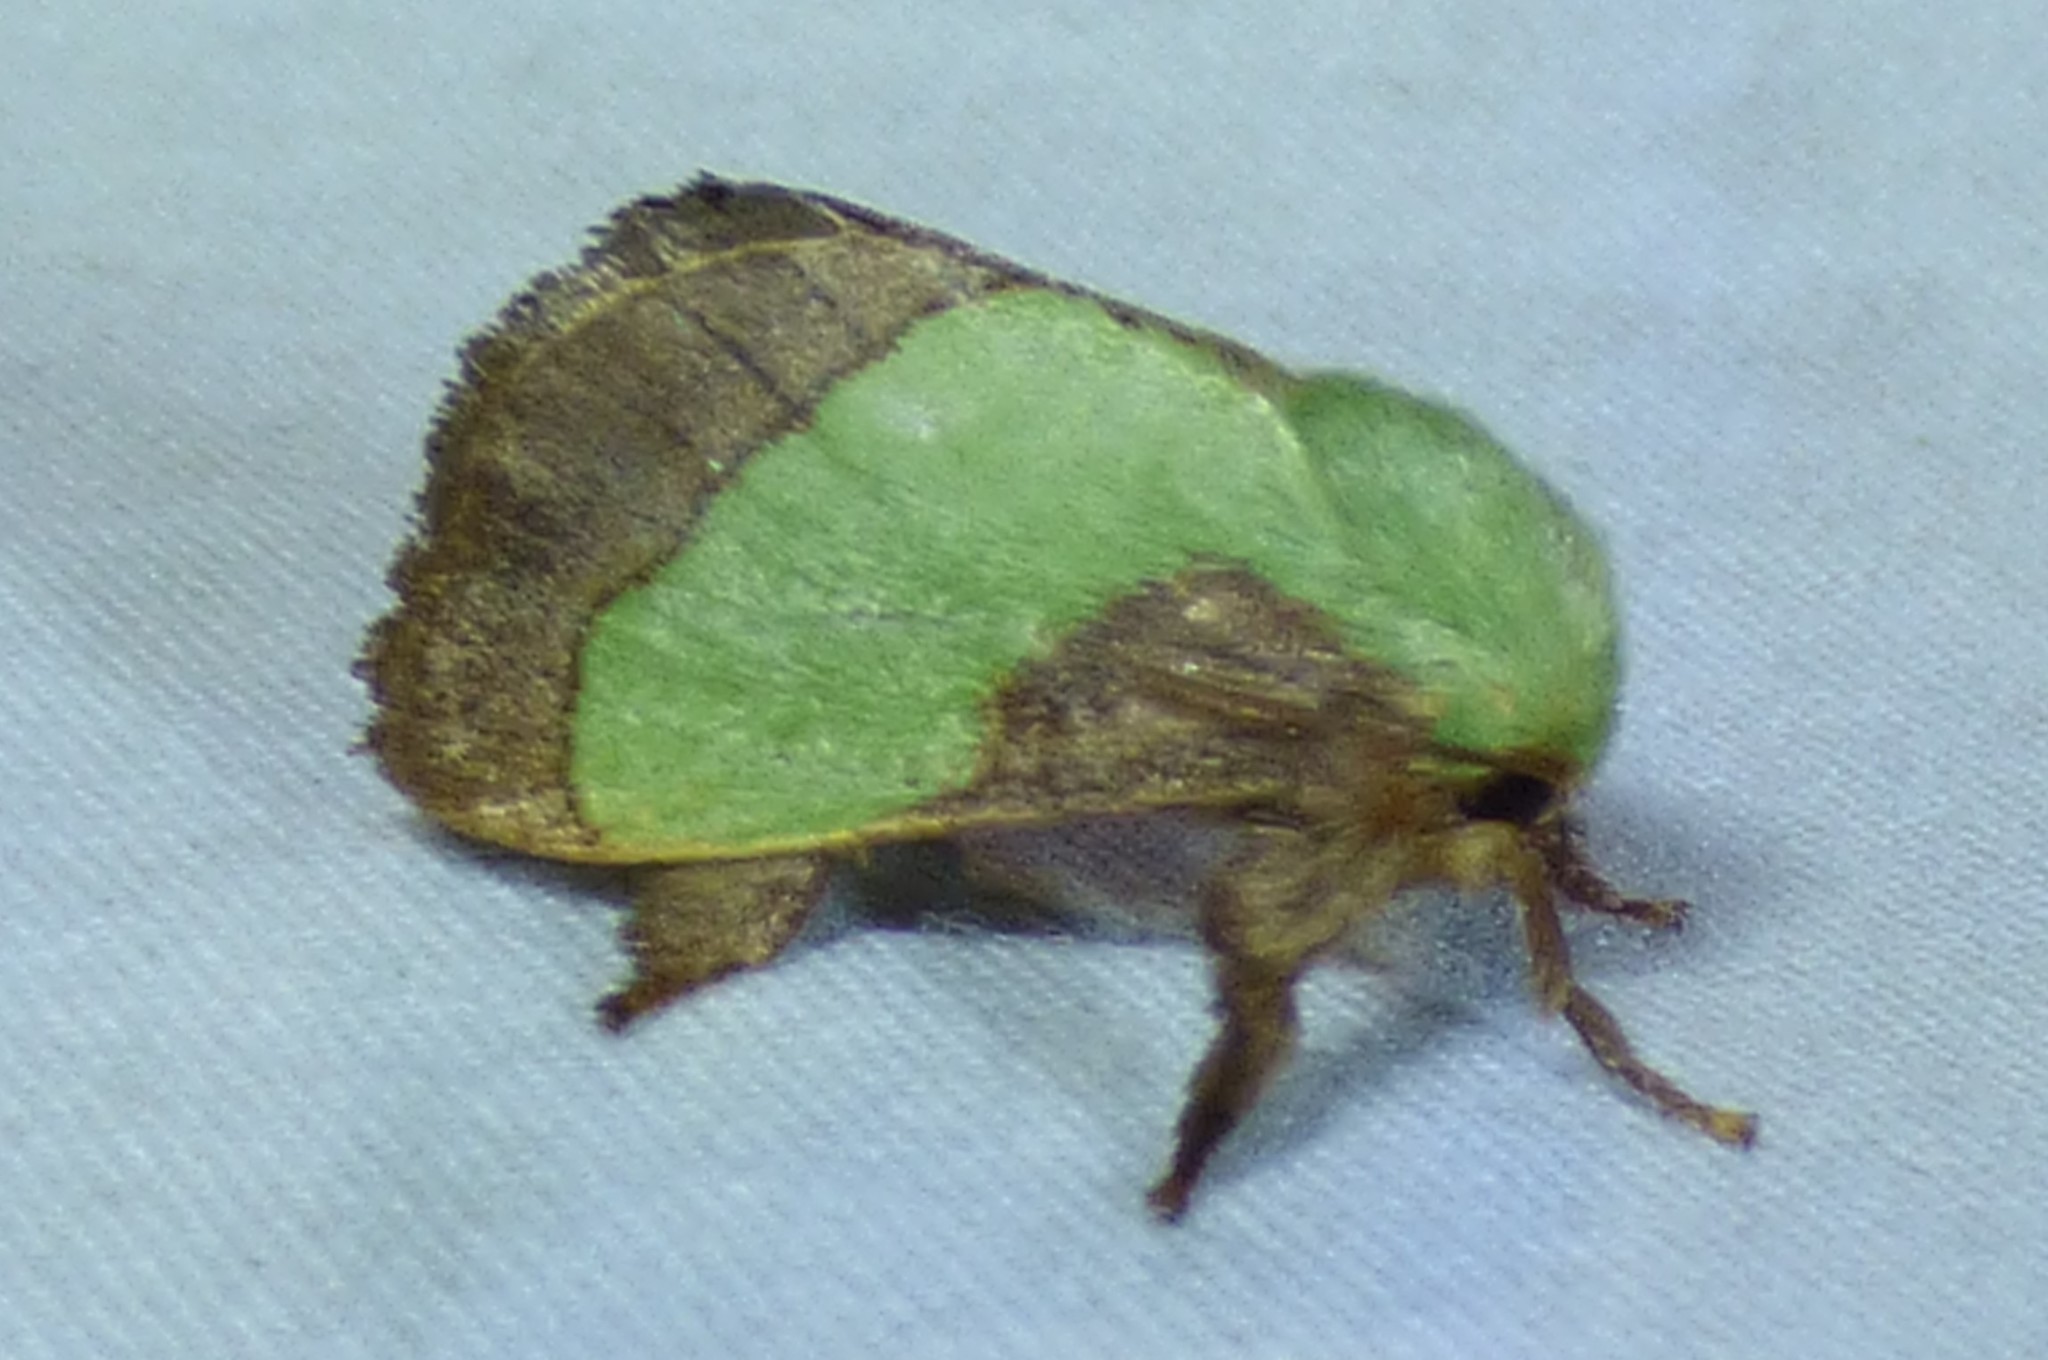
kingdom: Animalia
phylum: Arthropoda
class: Insecta
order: Lepidoptera
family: Limacodidae
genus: Parasa
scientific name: Parasa chloris
